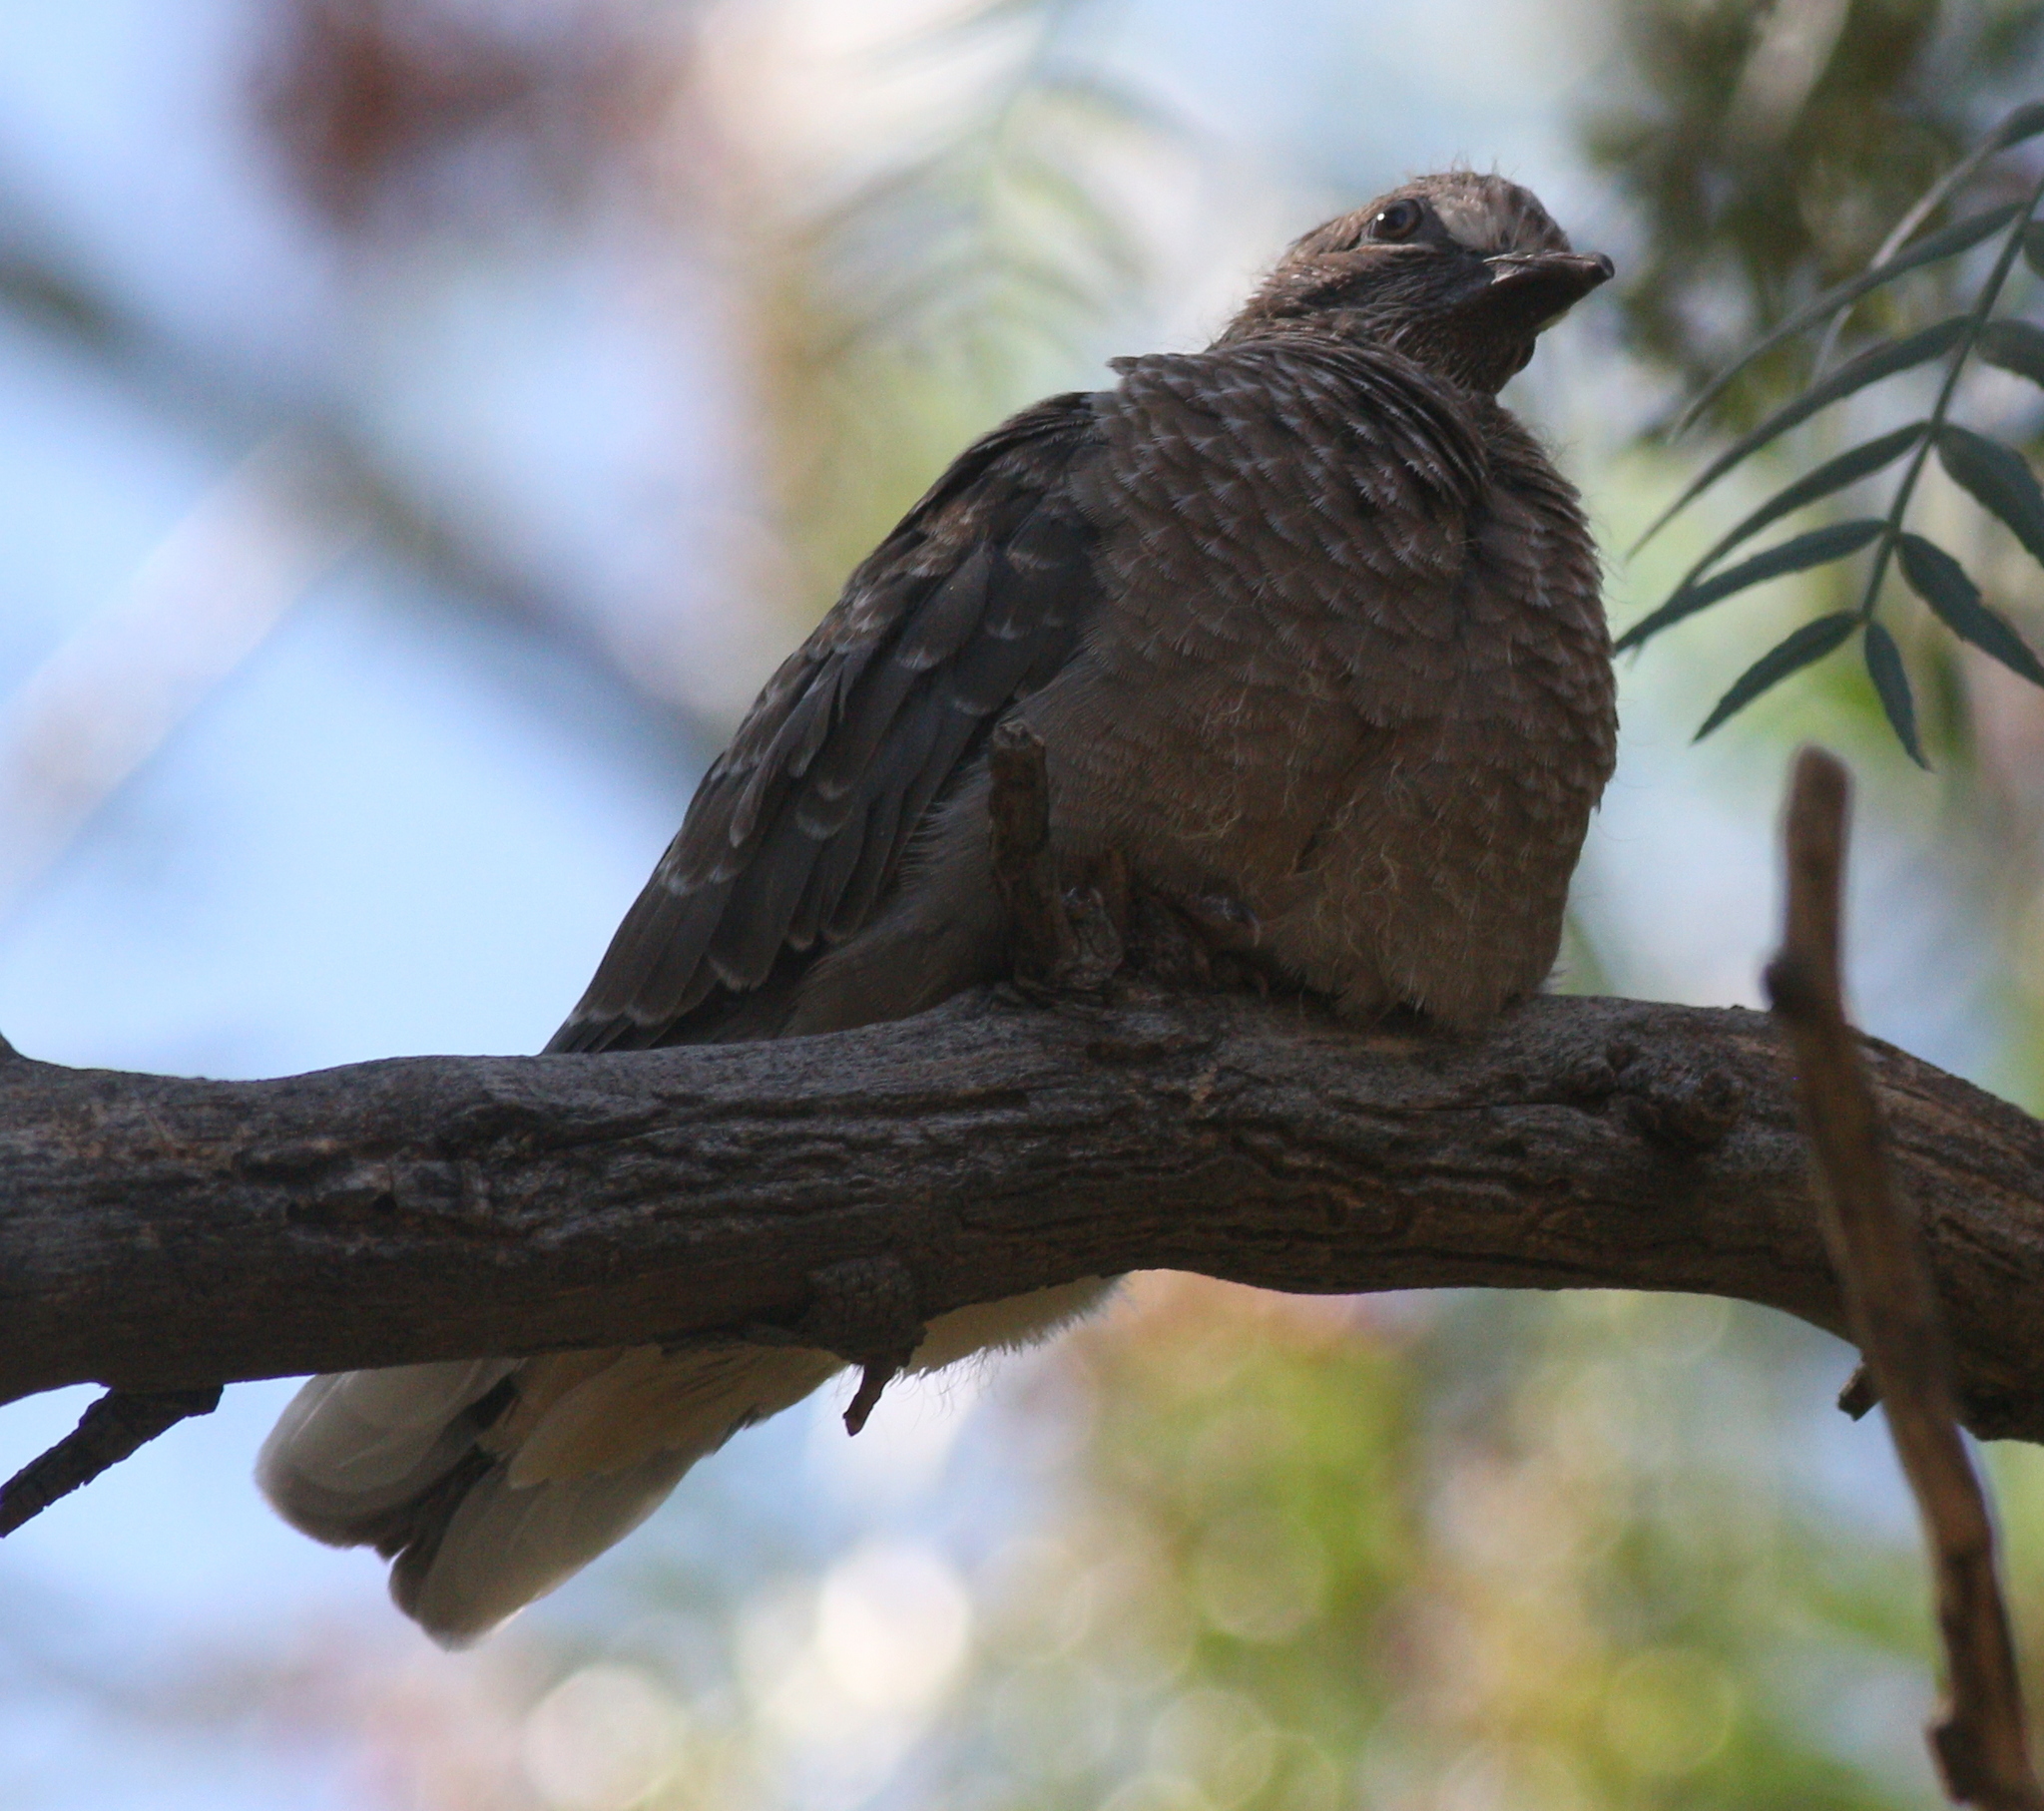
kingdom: Animalia
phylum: Chordata
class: Aves
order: Columbiformes
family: Columbidae
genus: Zenaida
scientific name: Zenaida auriculata
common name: Eared dove
